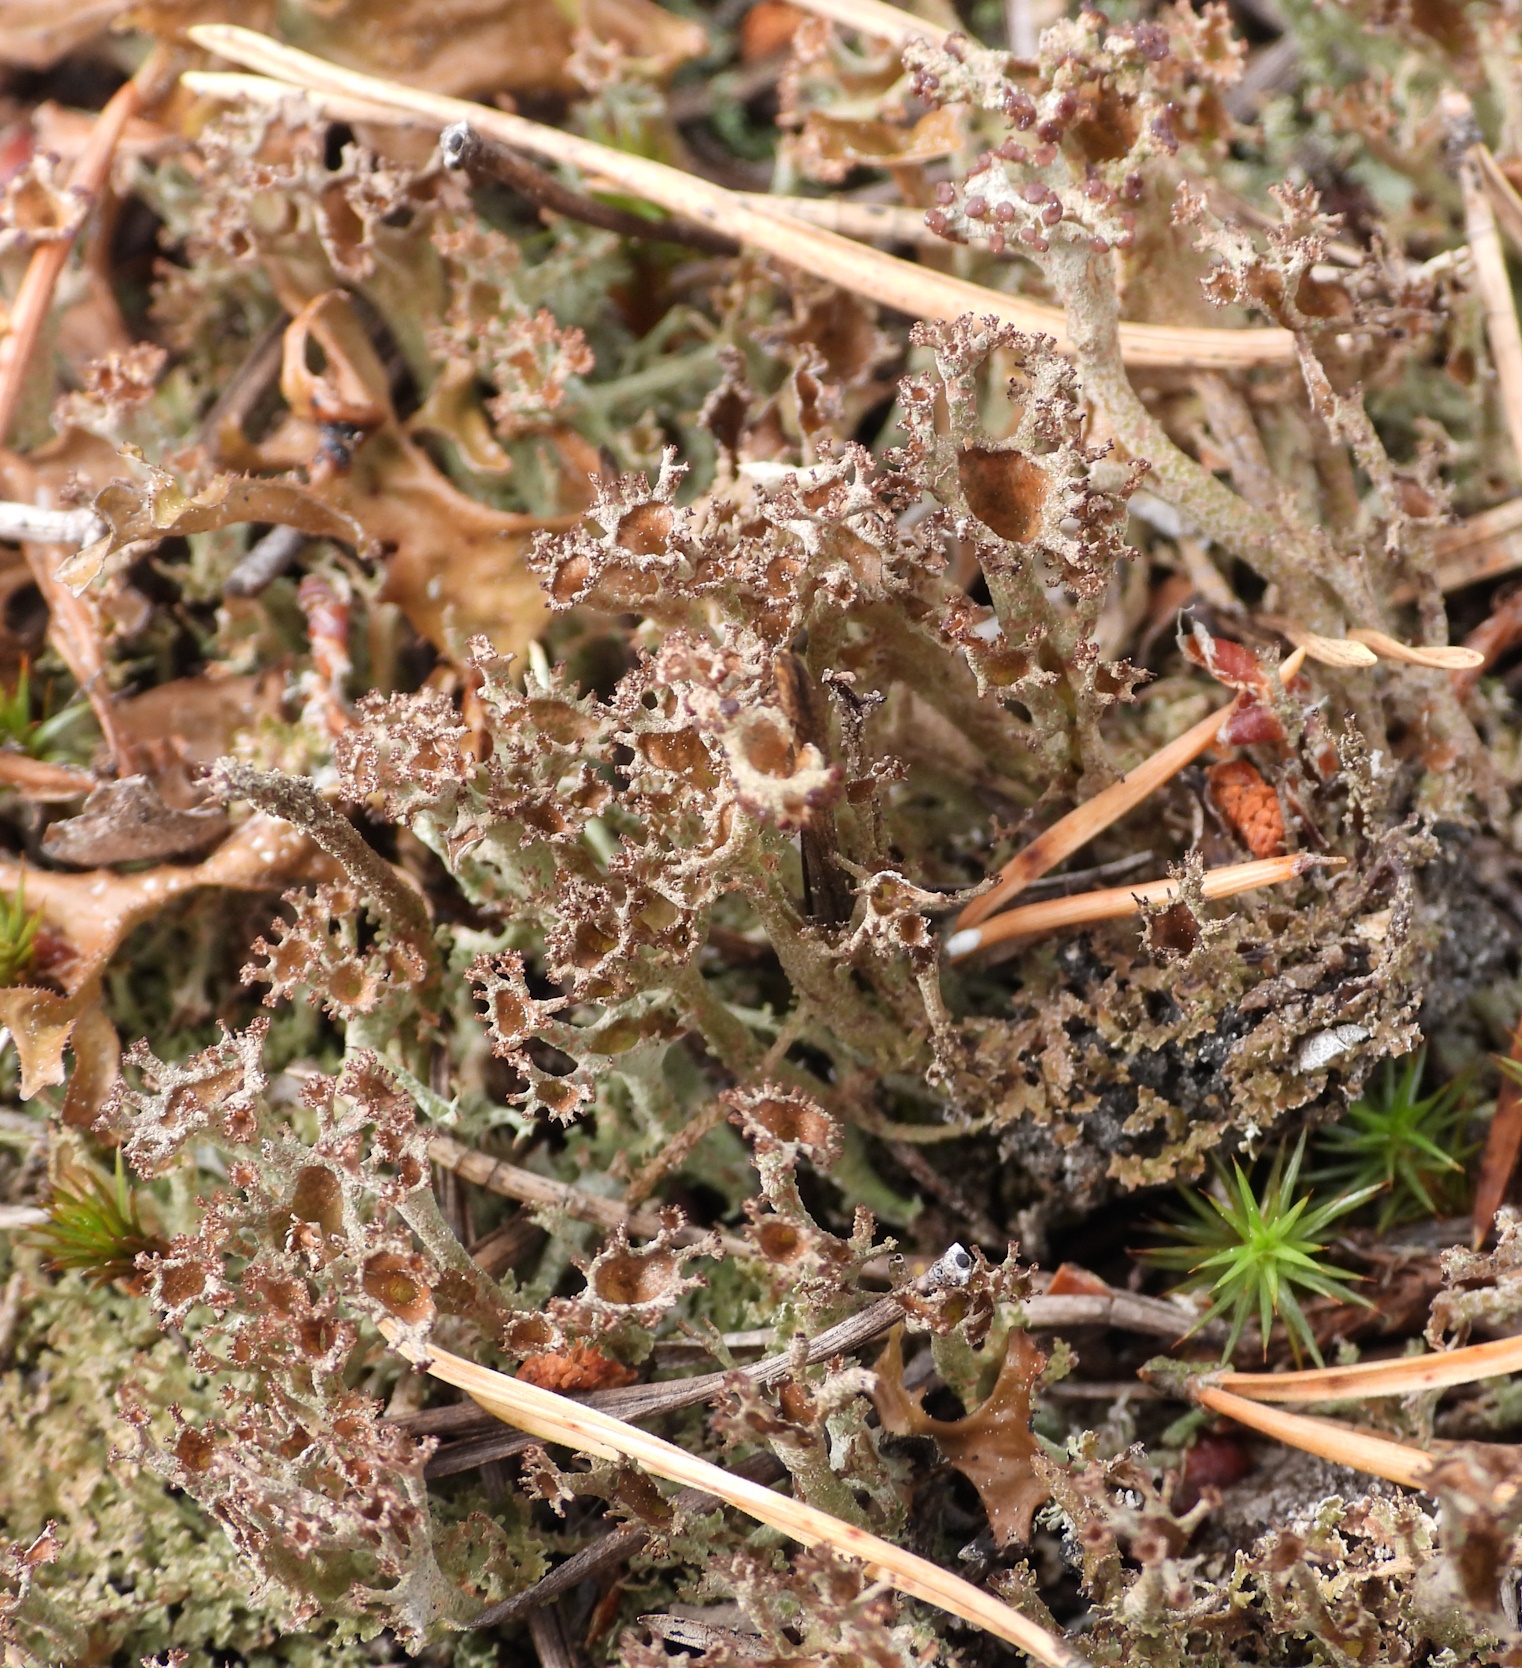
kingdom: Fungi
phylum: Ascomycota
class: Lecanoromycetes
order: Lecanorales
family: Cladoniaceae
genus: Cladonia
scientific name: Cladonia crispata
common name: Organ-pipe lichen
